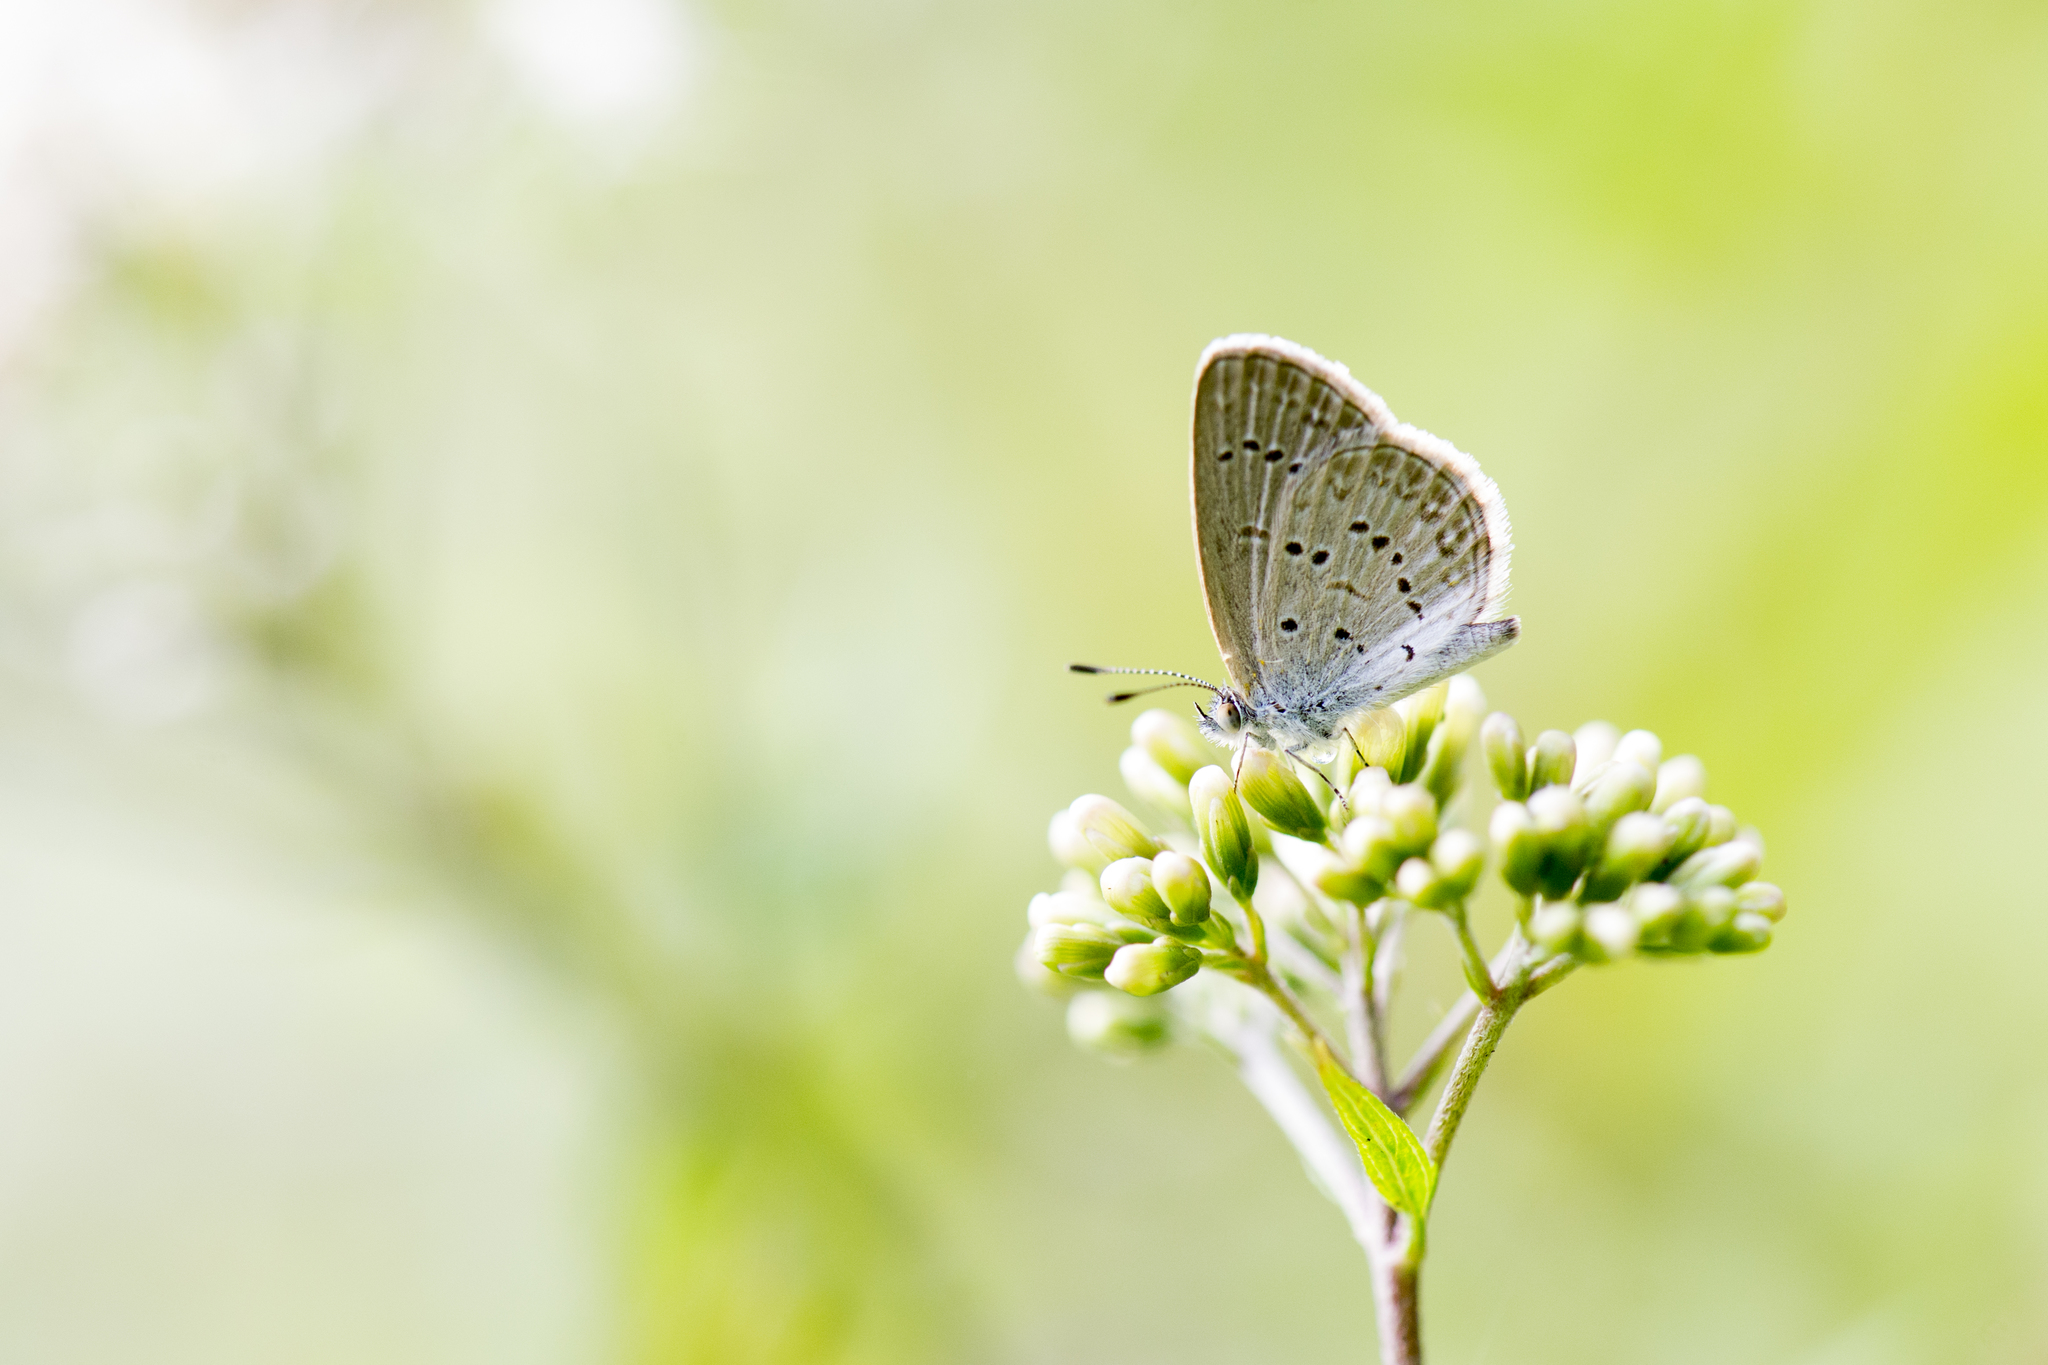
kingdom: Animalia
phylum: Arthropoda
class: Insecta
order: Lepidoptera
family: Lycaenidae
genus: Zizina
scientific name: Zizina otis
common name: Lesser grass blue
